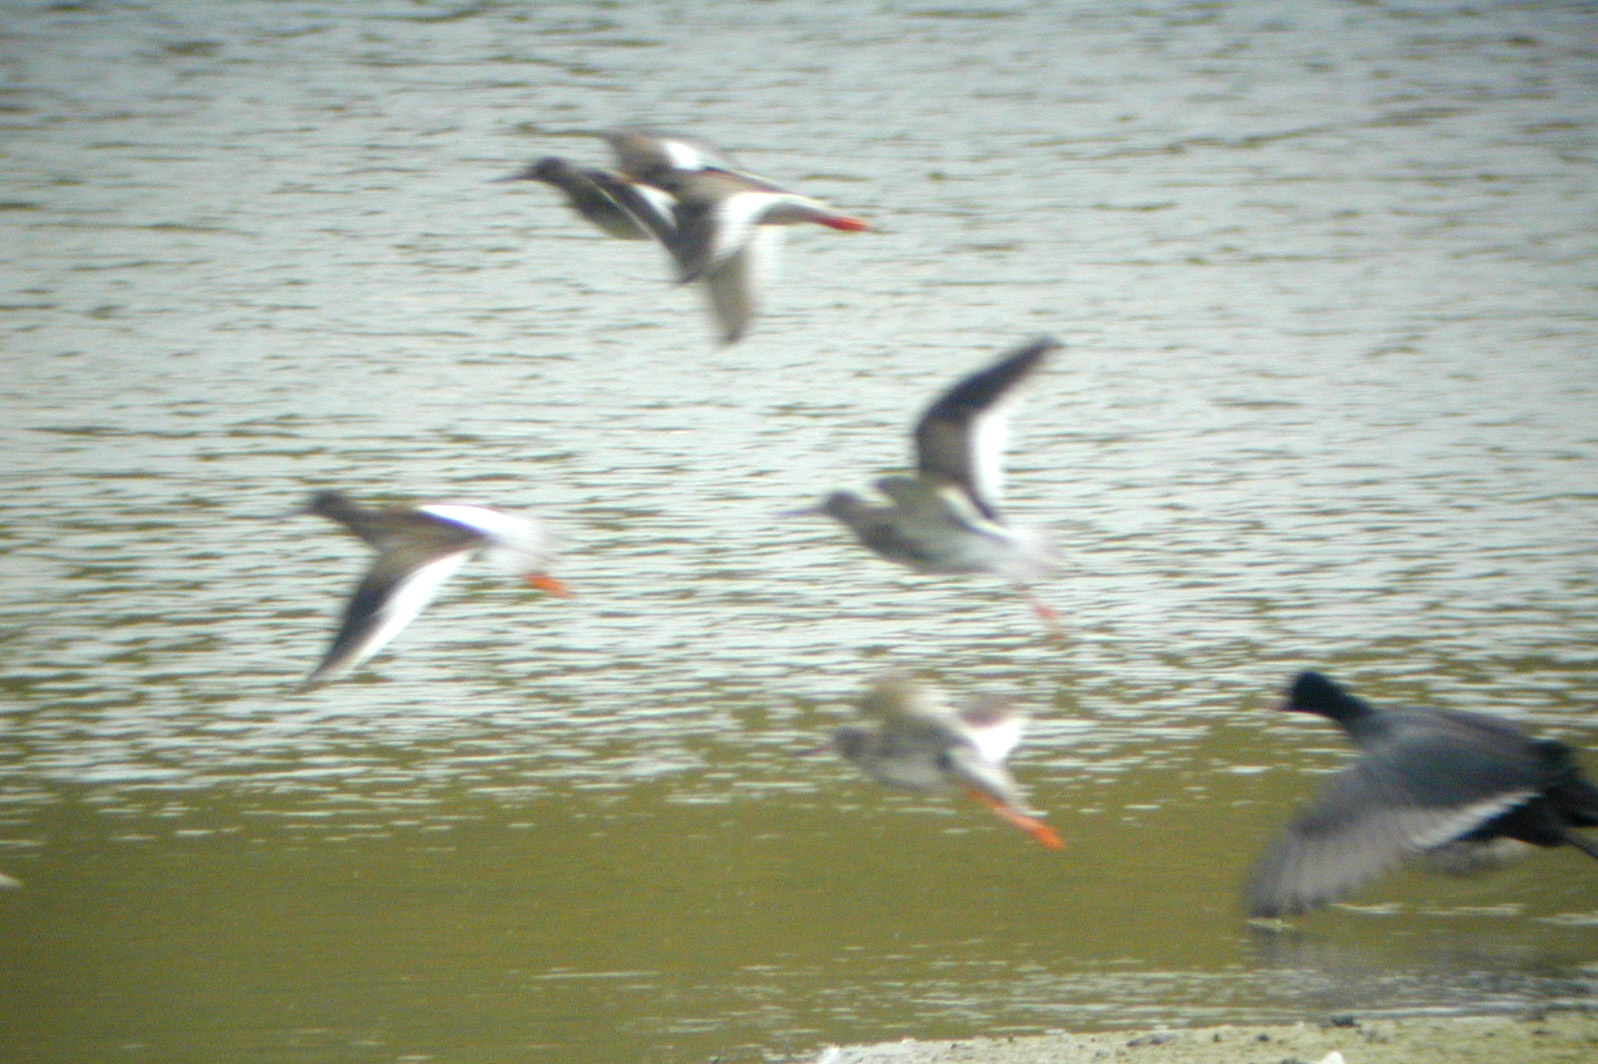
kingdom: Animalia
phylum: Chordata
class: Aves
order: Charadriiformes
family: Scolopacidae
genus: Tringa
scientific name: Tringa totanus
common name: Common redshank
